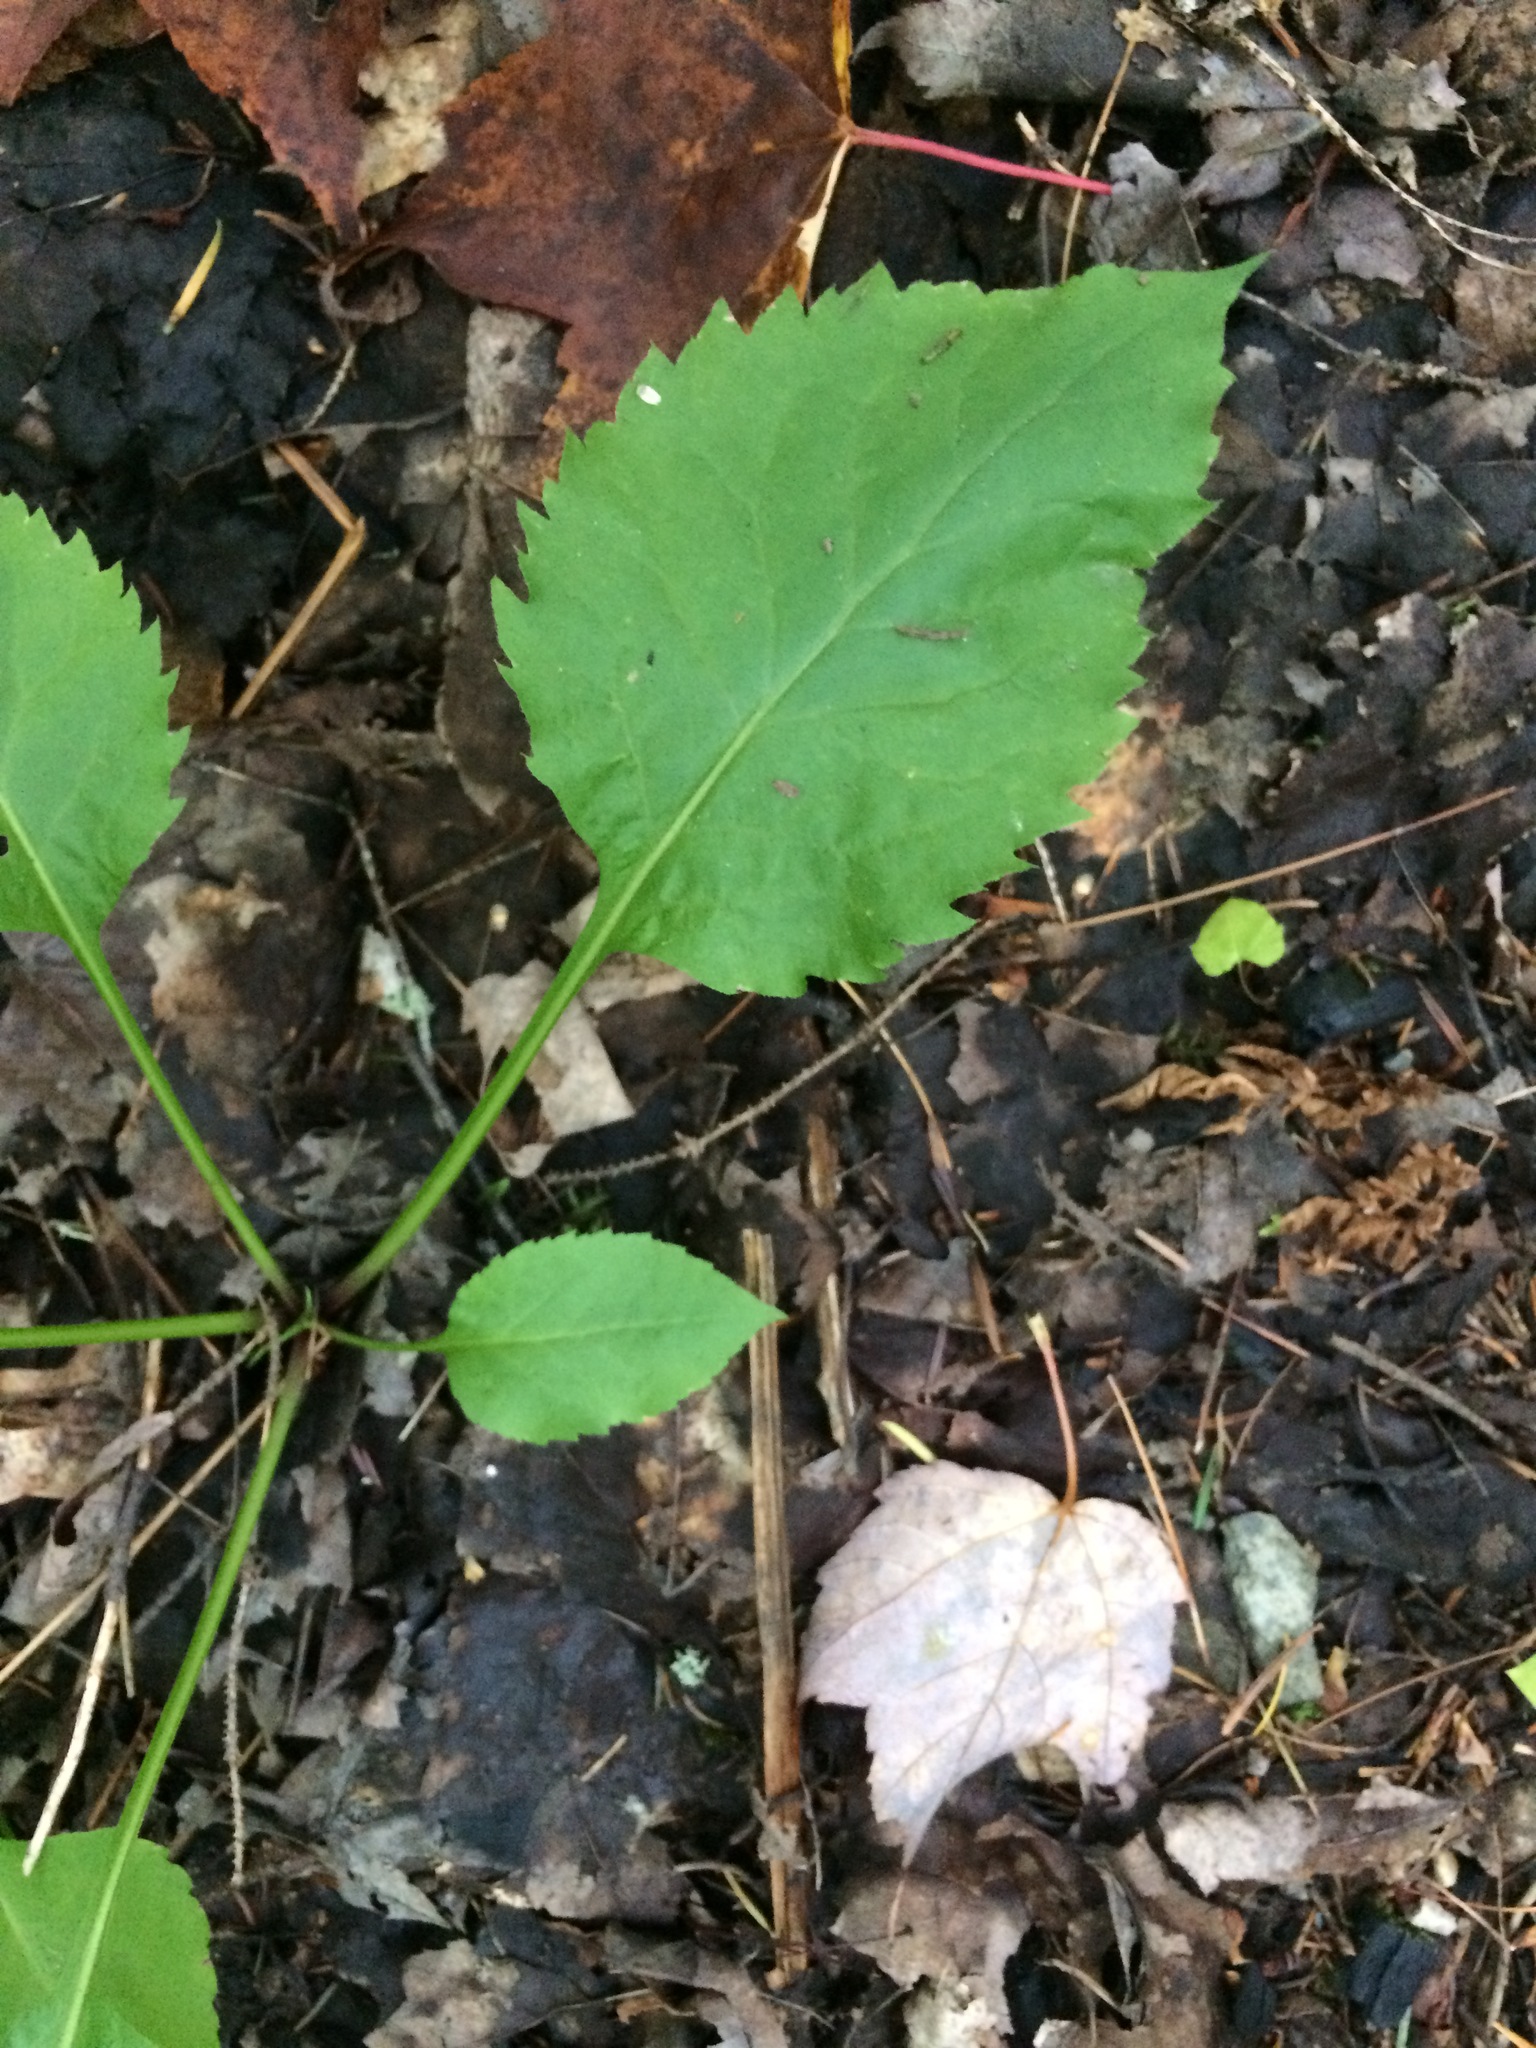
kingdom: Plantae
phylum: Tracheophyta
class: Magnoliopsida
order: Asterales
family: Asteraceae
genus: Solidago
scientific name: Solidago macrophylla
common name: Large-leaved goldenrod
